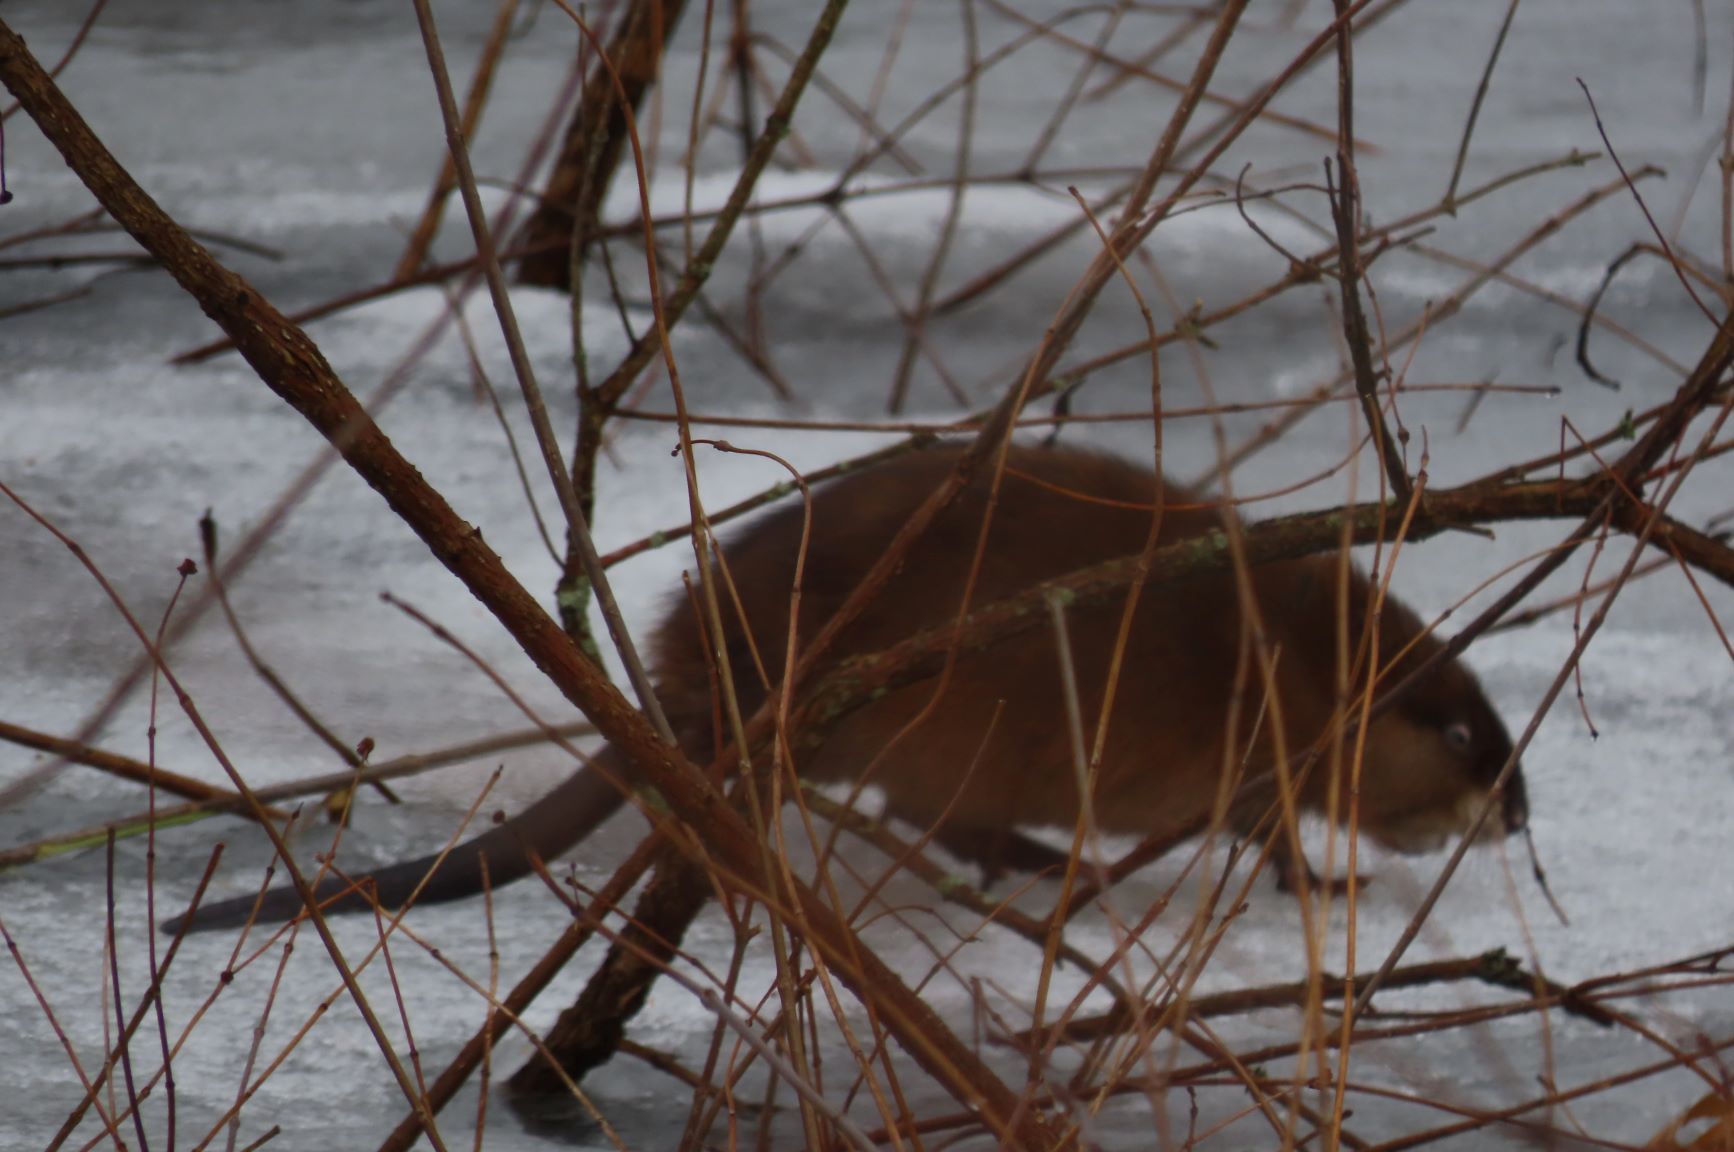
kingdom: Animalia
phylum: Chordata
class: Mammalia
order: Rodentia
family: Cricetidae
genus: Ondatra
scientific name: Ondatra zibethicus
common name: Muskrat
